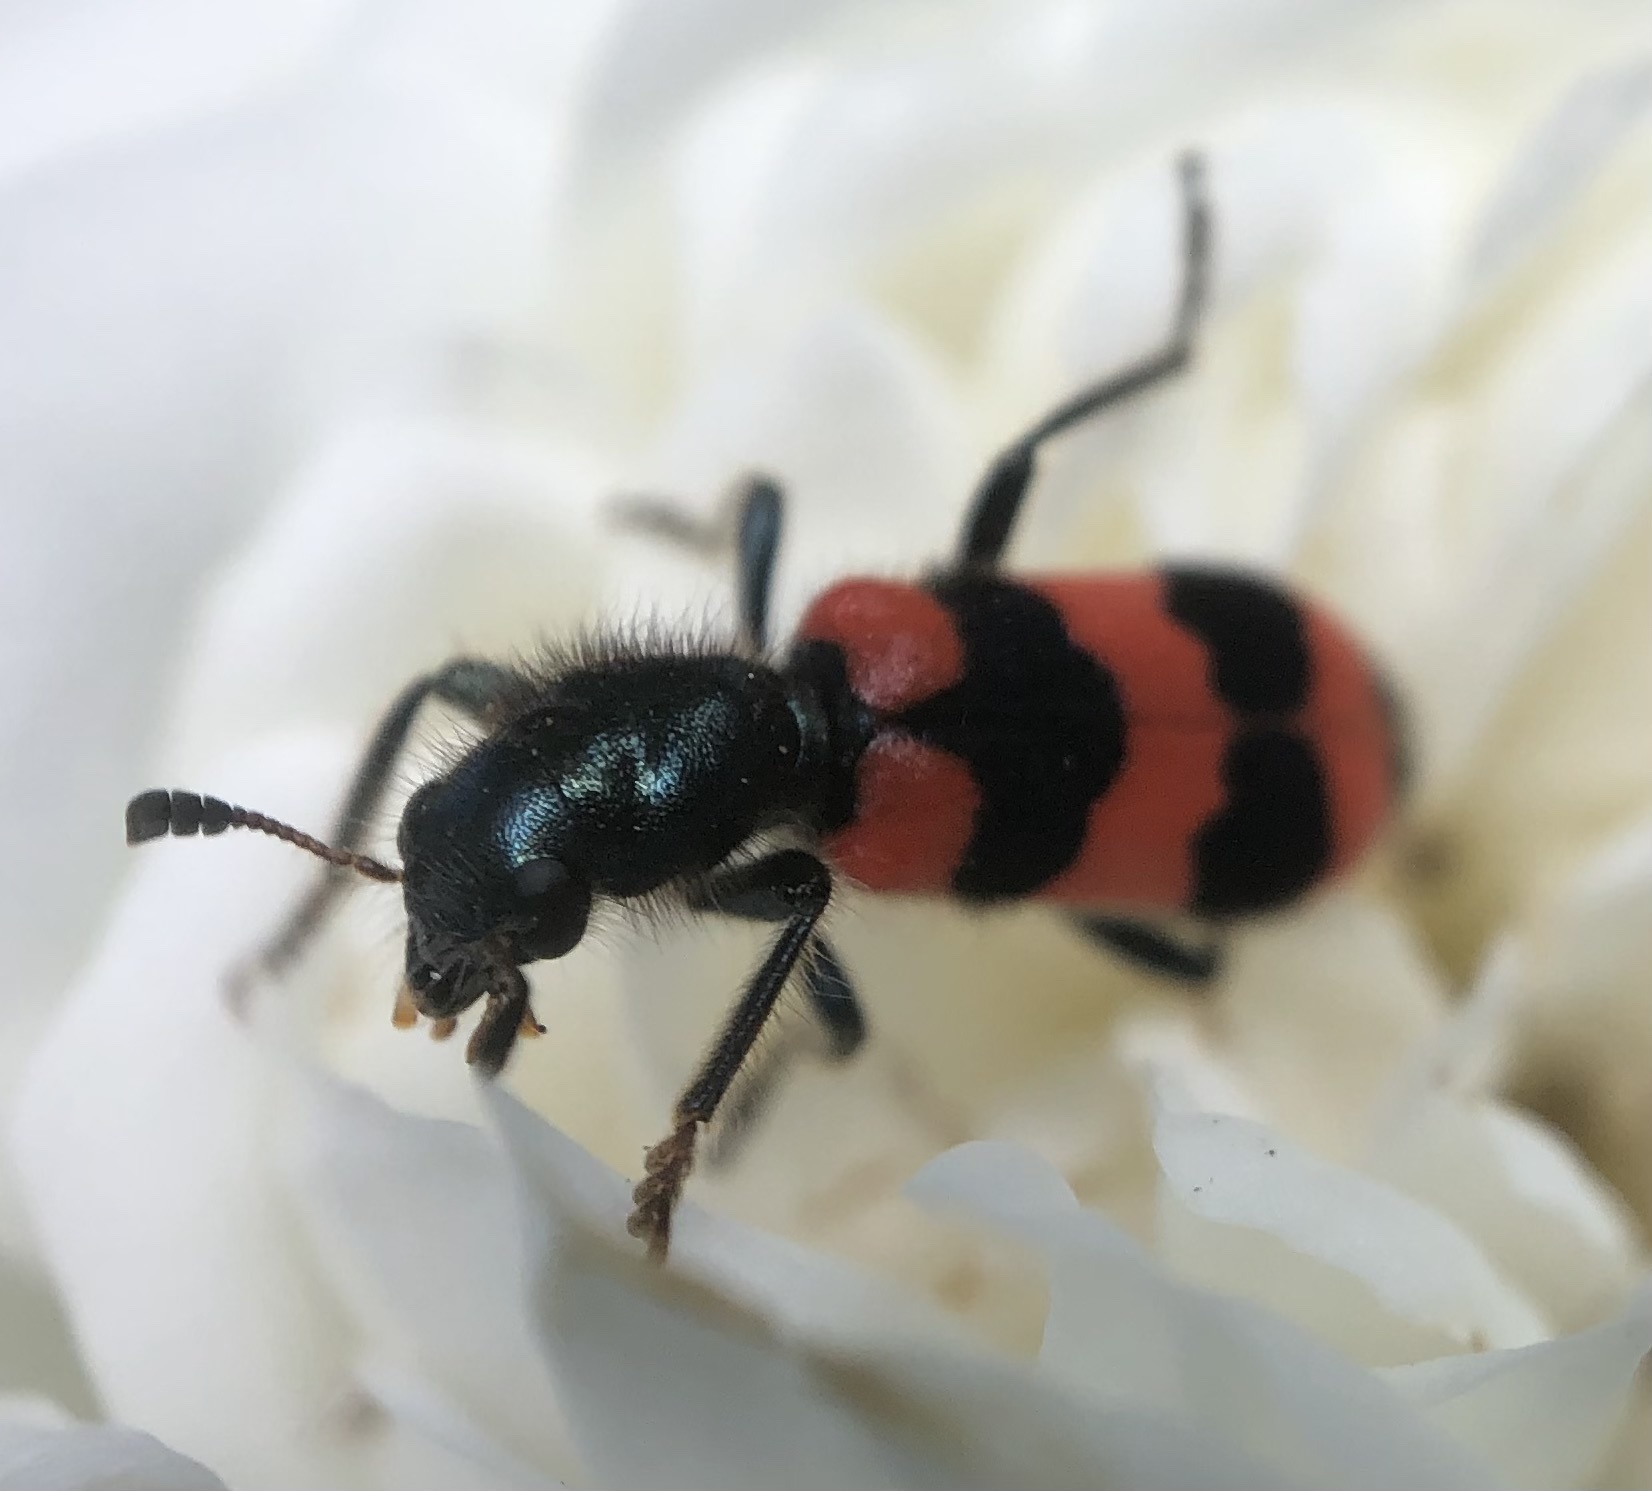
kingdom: Animalia
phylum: Arthropoda
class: Insecta
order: Coleoptera
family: Cleridae
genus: Trichodes
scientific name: Trichodes apiarius
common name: Bee-eating beetle
